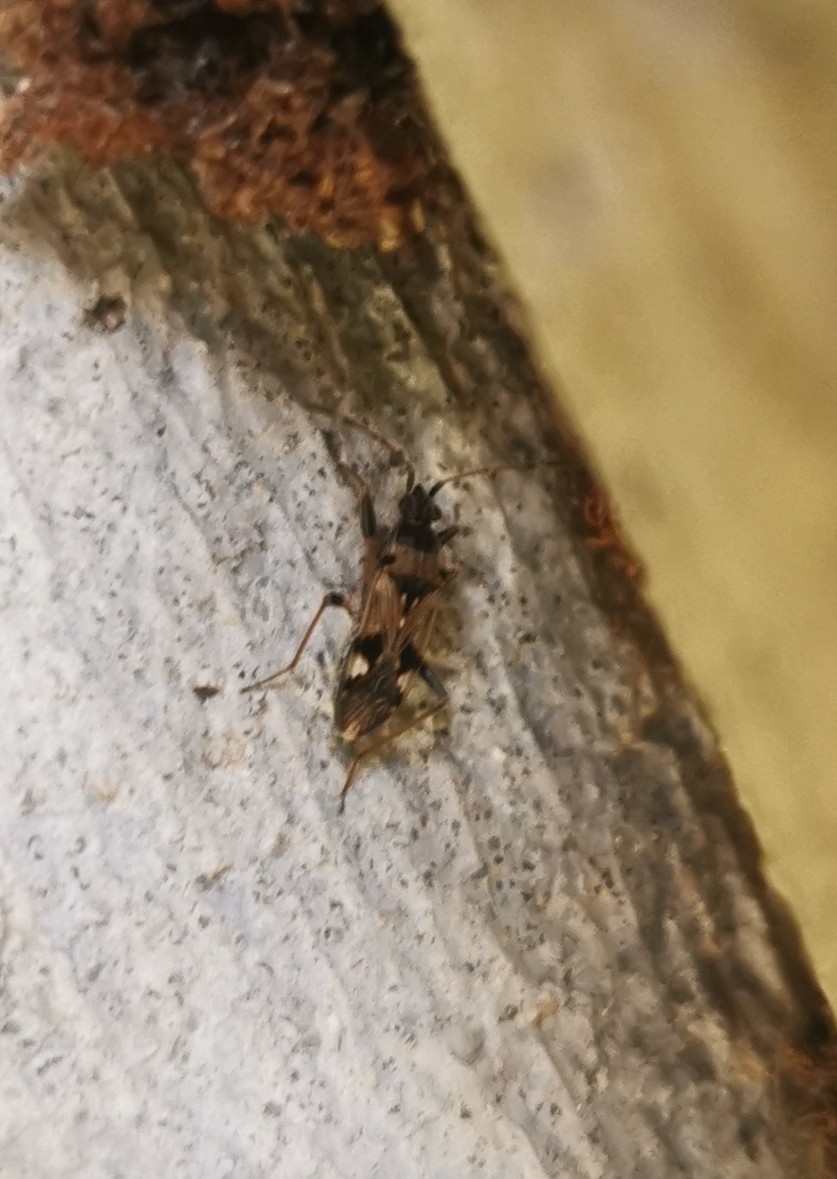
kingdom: Animalia
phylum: Arthropoda
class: Insecta
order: Hemiptera
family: Rhyparochromidae
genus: Beosus
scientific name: Beosus maritimus
